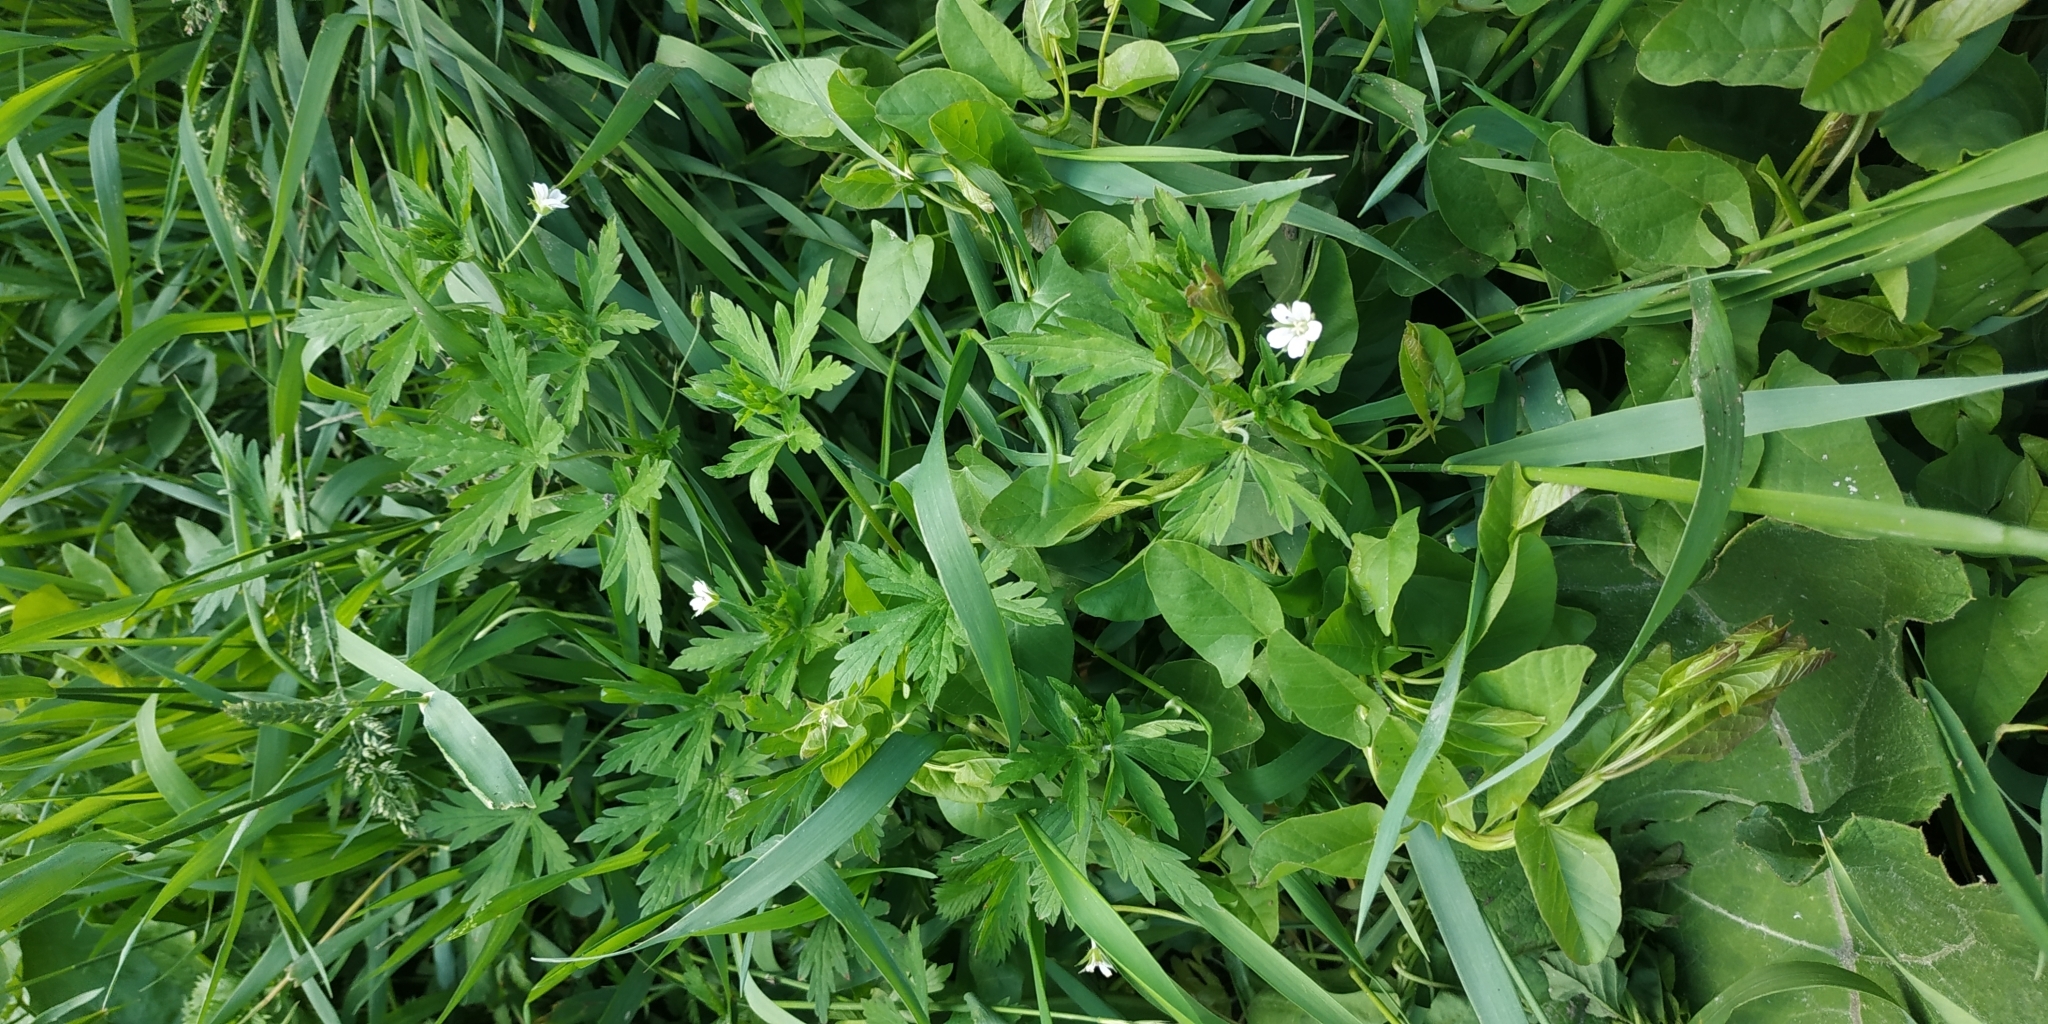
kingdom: Plantae
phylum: Tracheophyta
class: Magnoliopsida
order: Geraniales
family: Geraniaceae
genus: Geranium
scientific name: Geranium sibiricum
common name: Siberian crane's-bill
